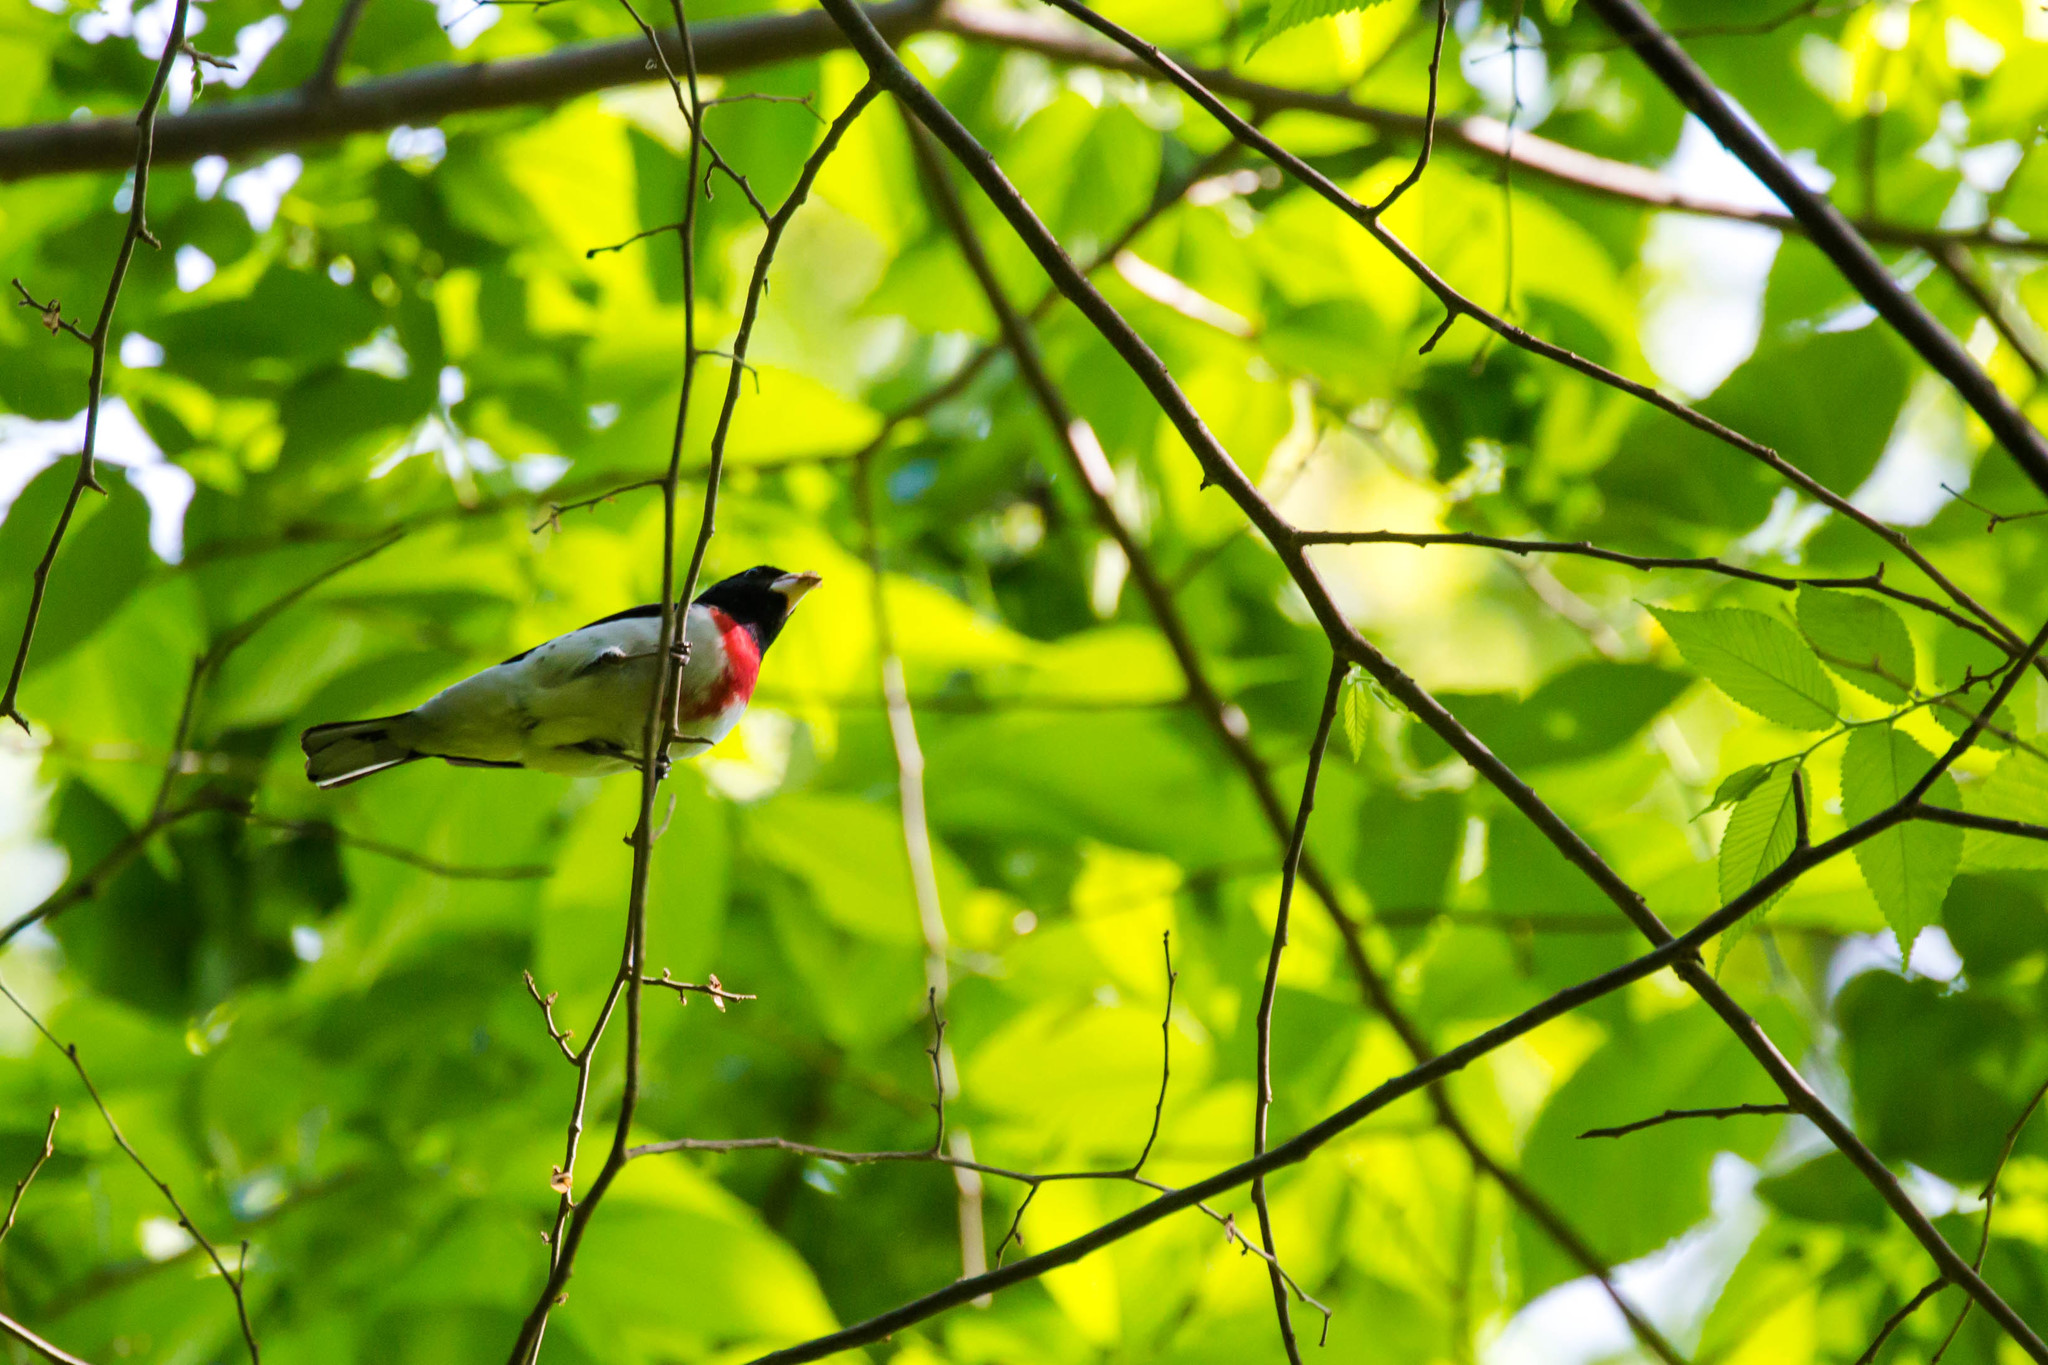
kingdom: Animalia
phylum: Chordata
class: Aves
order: Passeriformes
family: Cardinalidae
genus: Pheucticus
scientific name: Pheucticus ludovicianus
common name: Rose-breasted grosbeak
